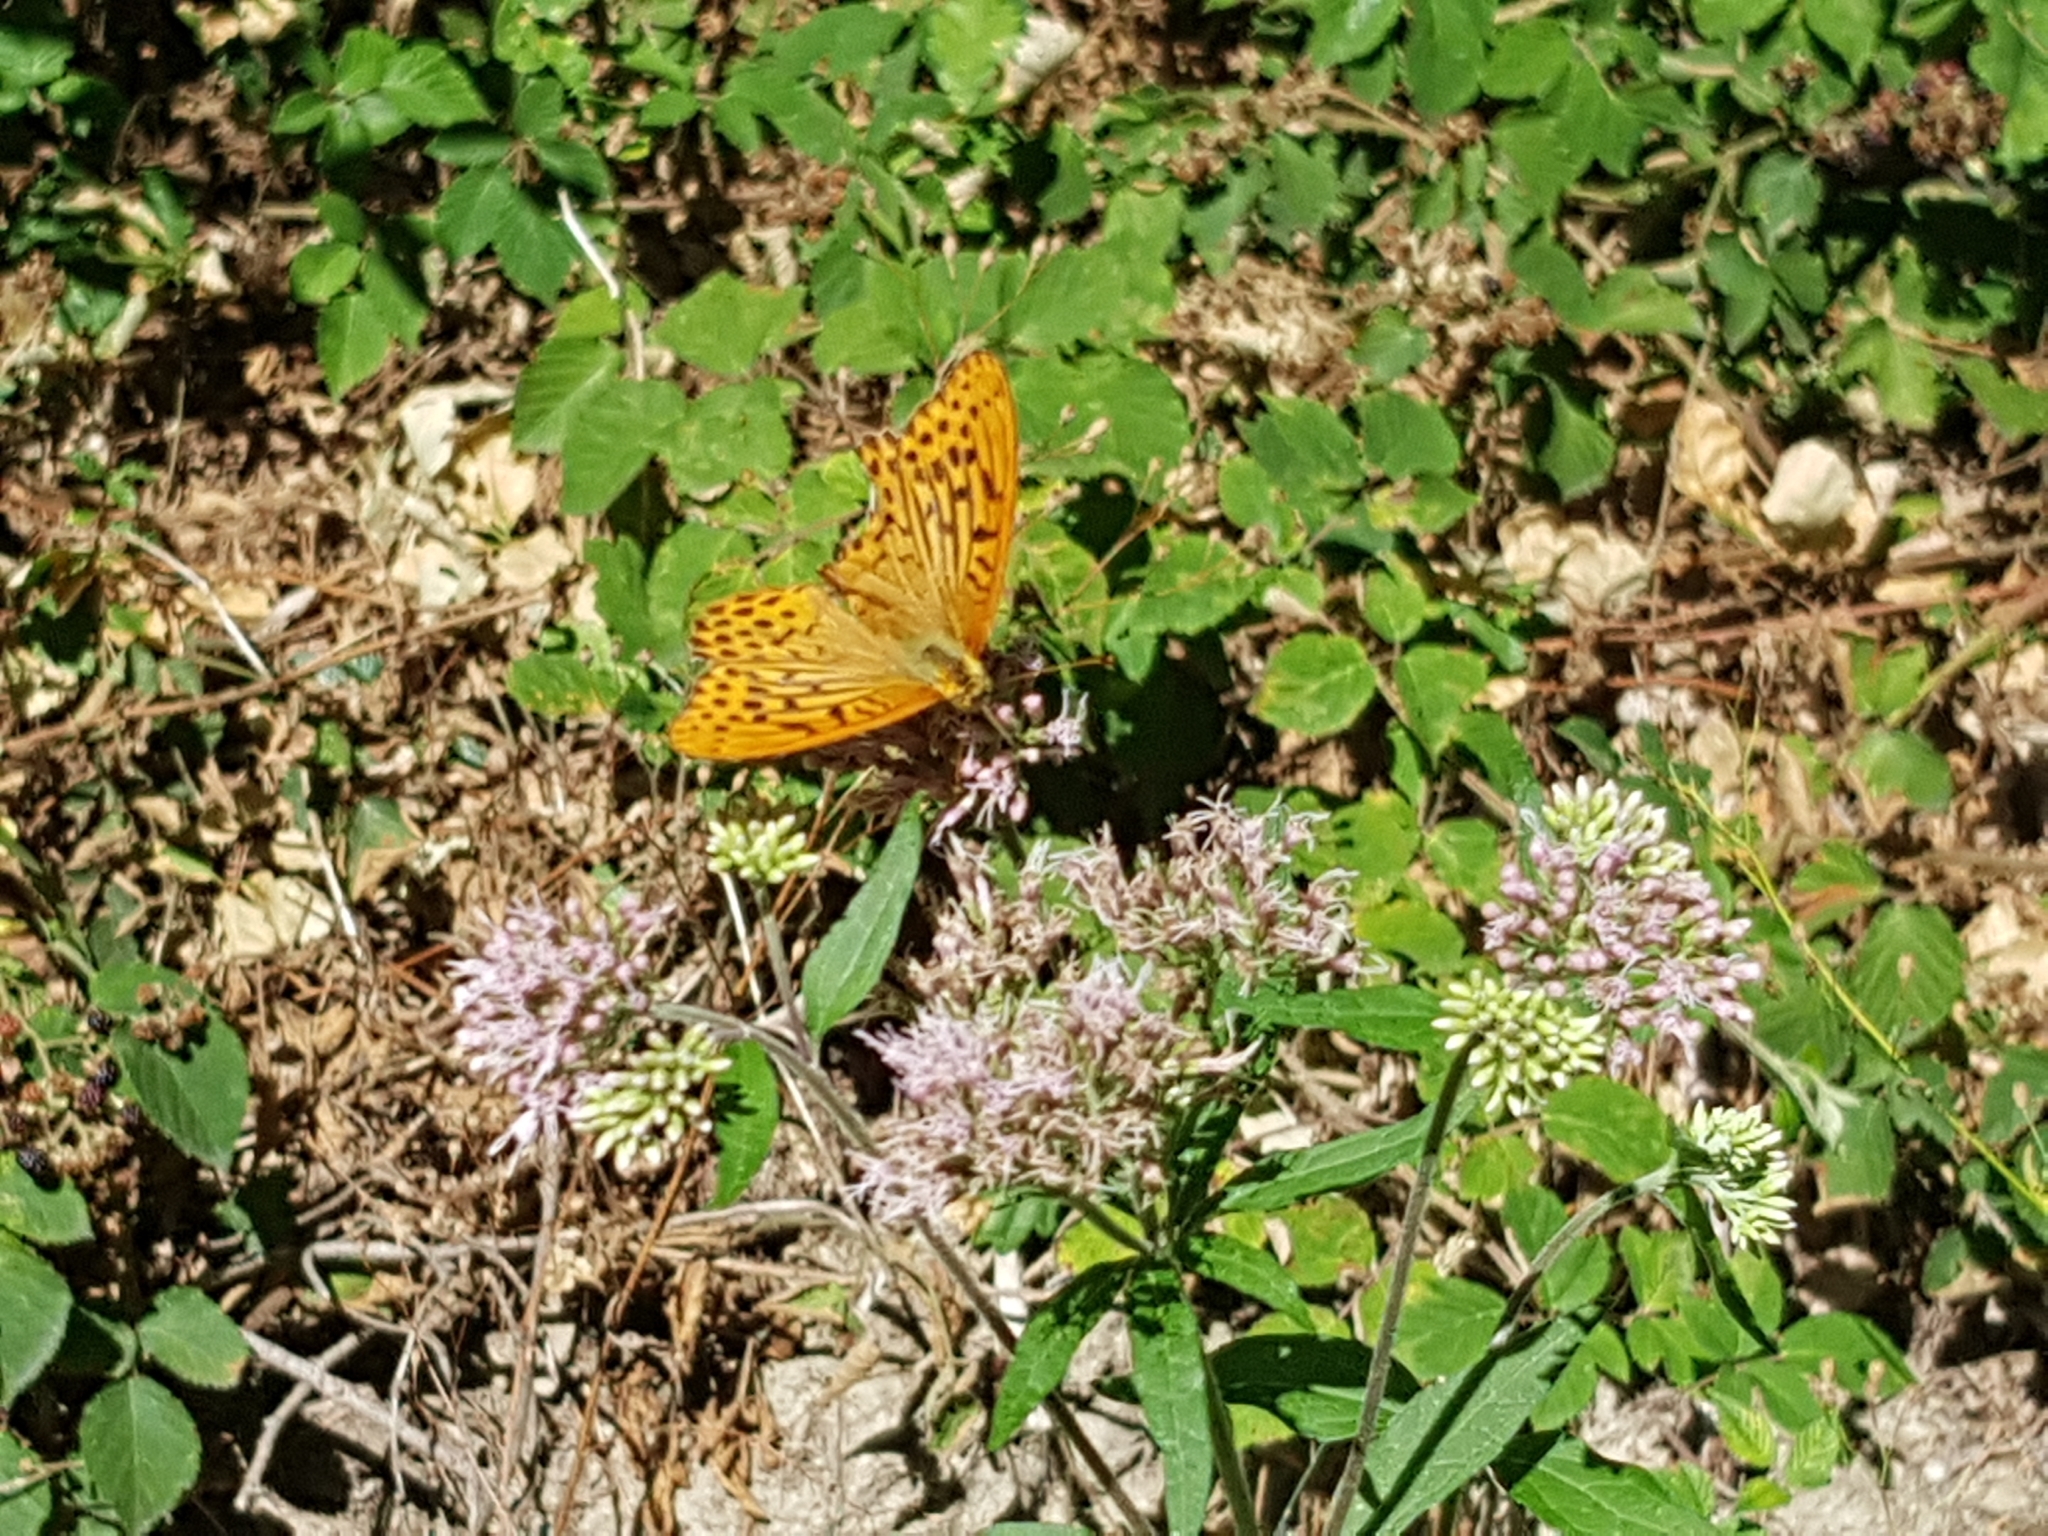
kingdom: Animalia
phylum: Arthropoda
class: Insecta
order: Lepidoptera
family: Nymphalidae
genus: Argynnis
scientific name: Argynnis paphia
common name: Silver-washed fritillary
